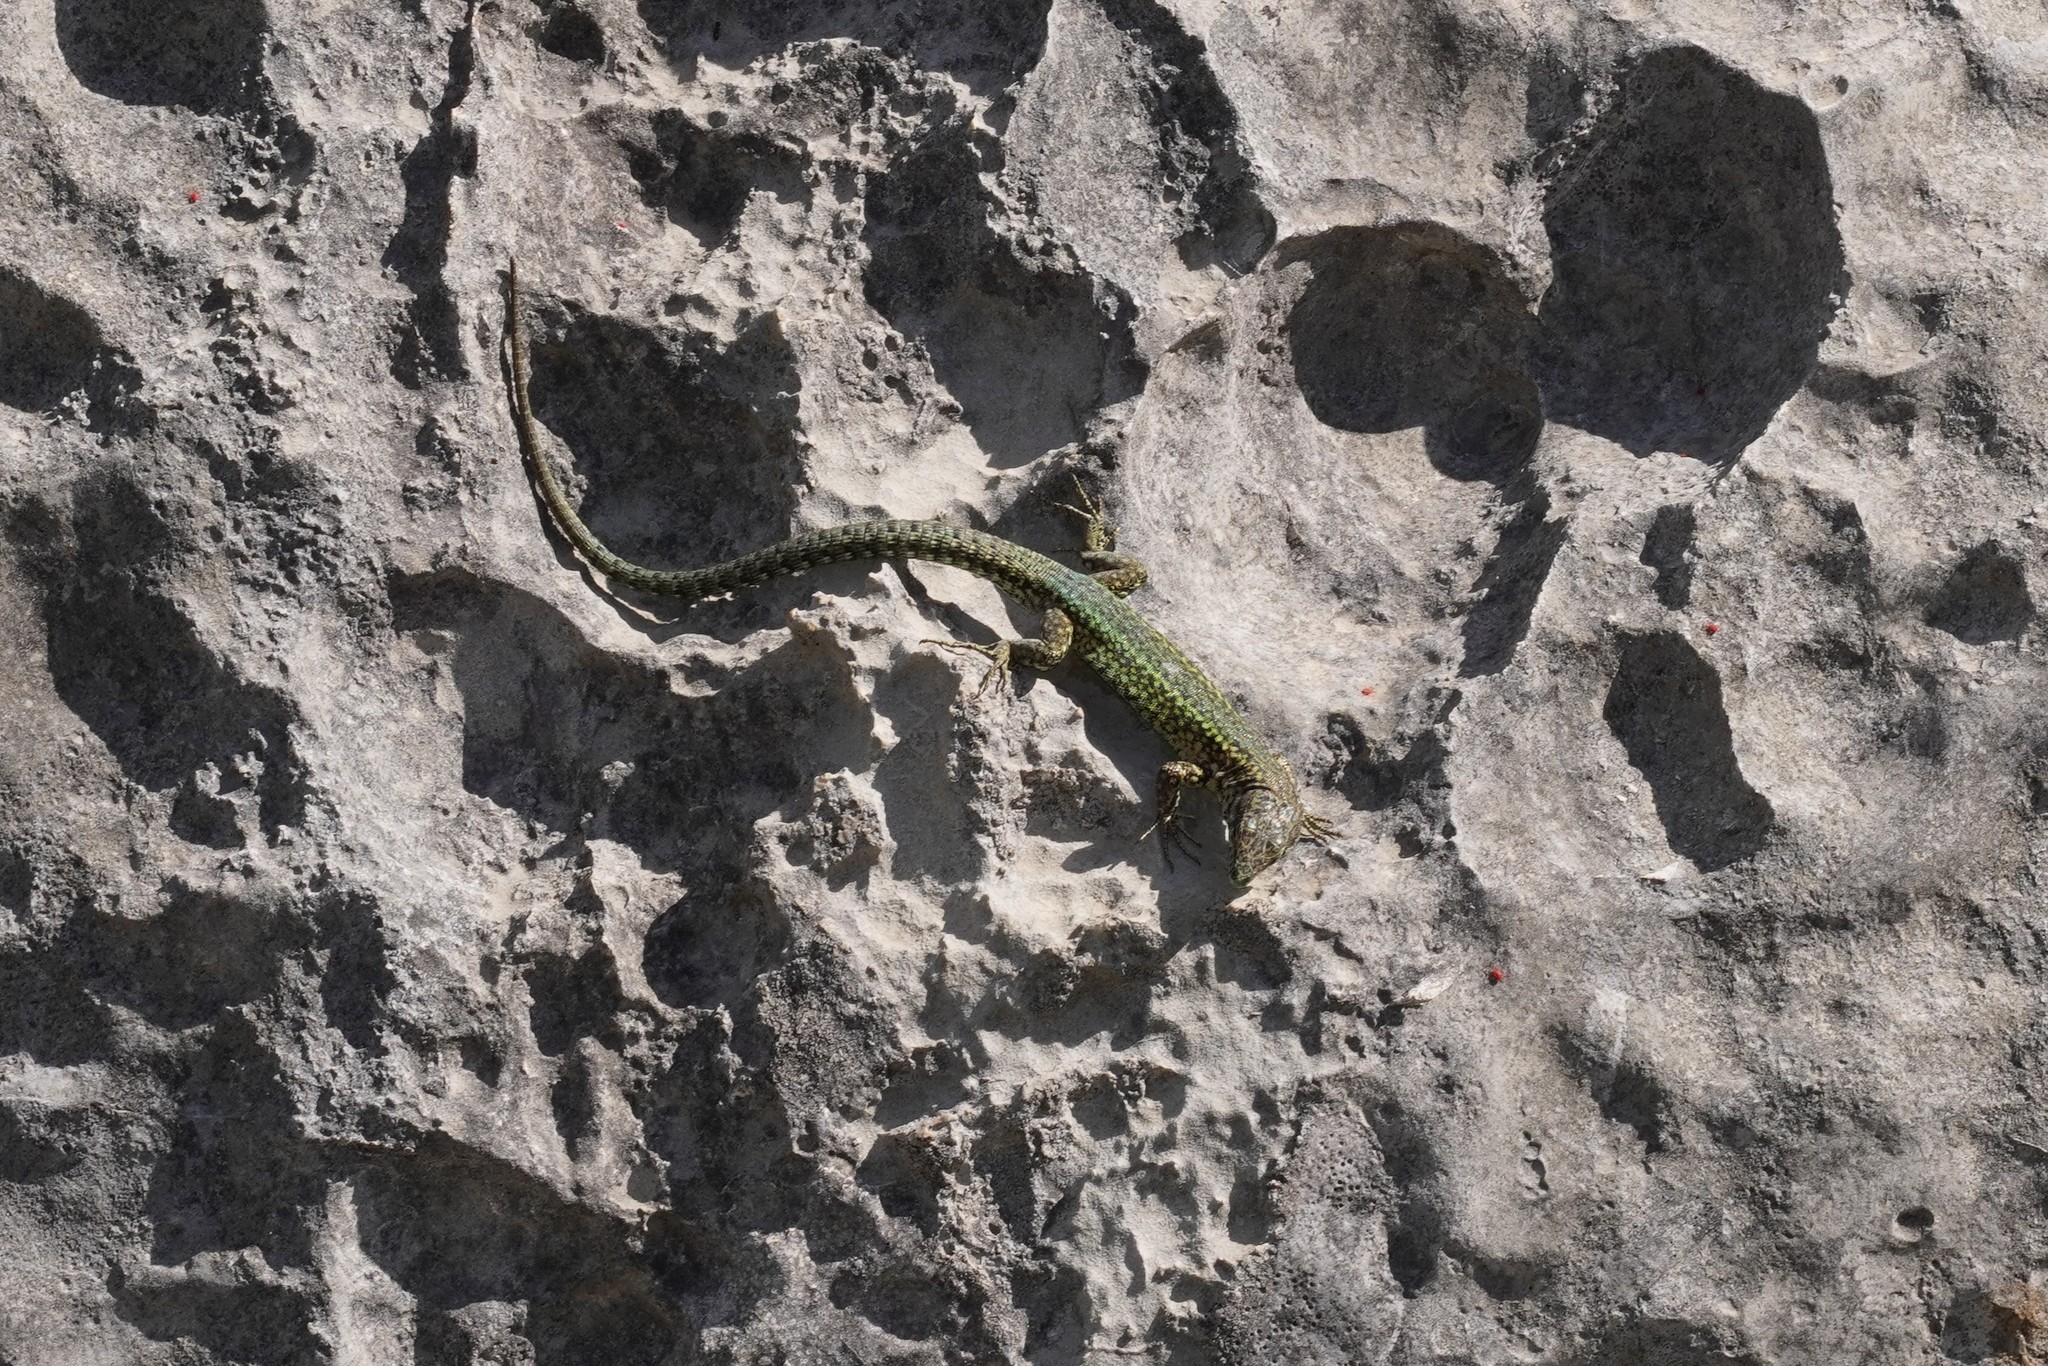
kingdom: Animalia
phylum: Chordata
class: Squamata
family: Lacertidae
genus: Podarcis
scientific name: Podarcis vaucheri
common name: Vaucher's wall lizard
